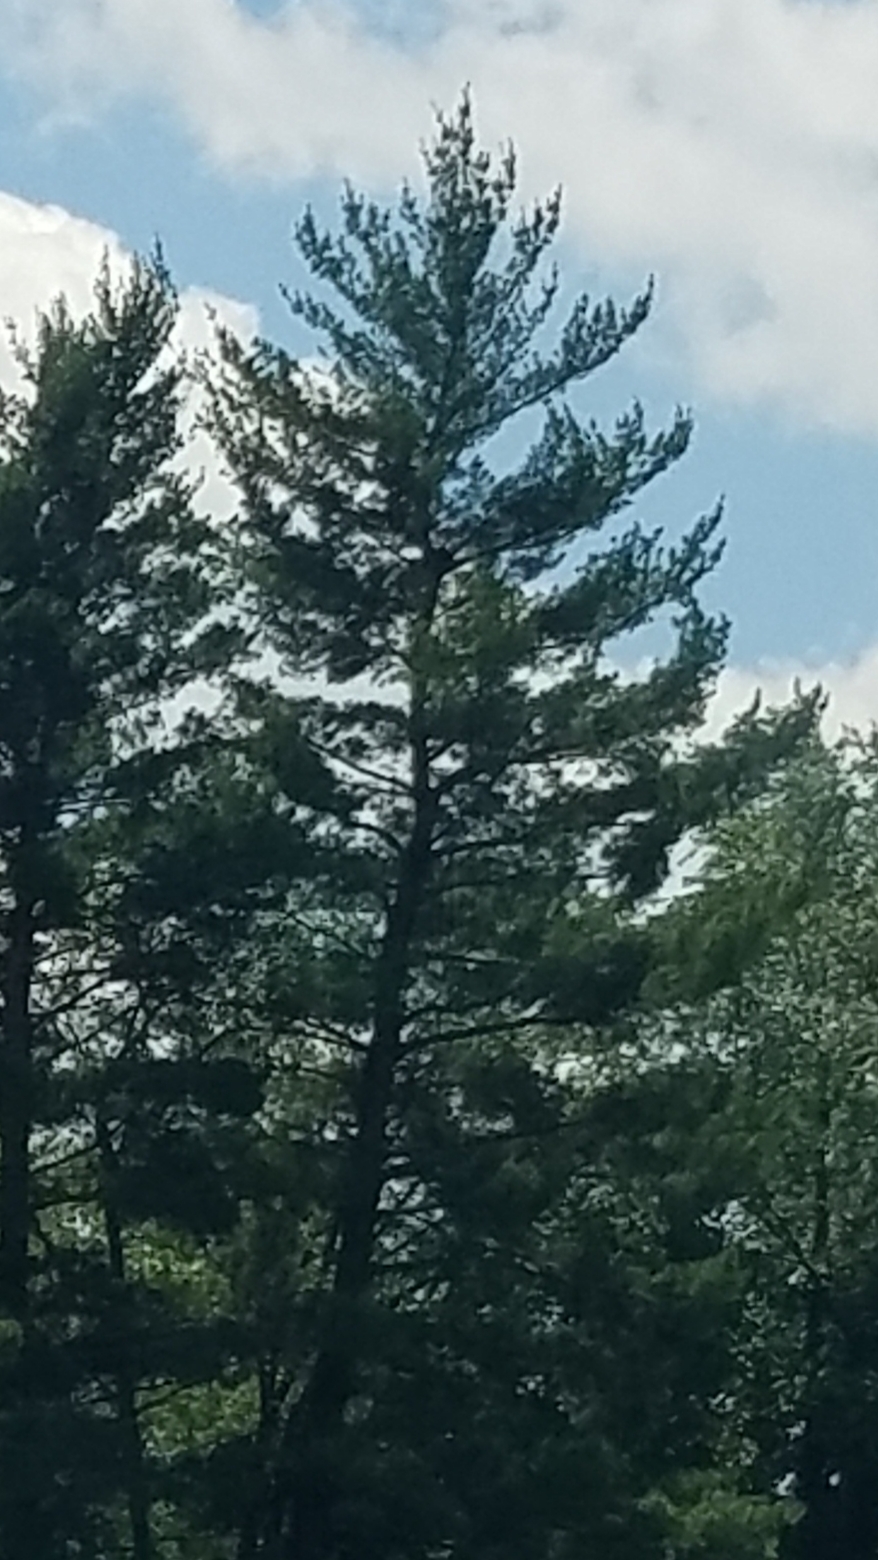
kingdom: Plantae
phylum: Tracheophyta
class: Pinopsida
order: Pinales
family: Pinaceae
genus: Pinus
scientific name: Pinus strobus
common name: Weymouth pine
